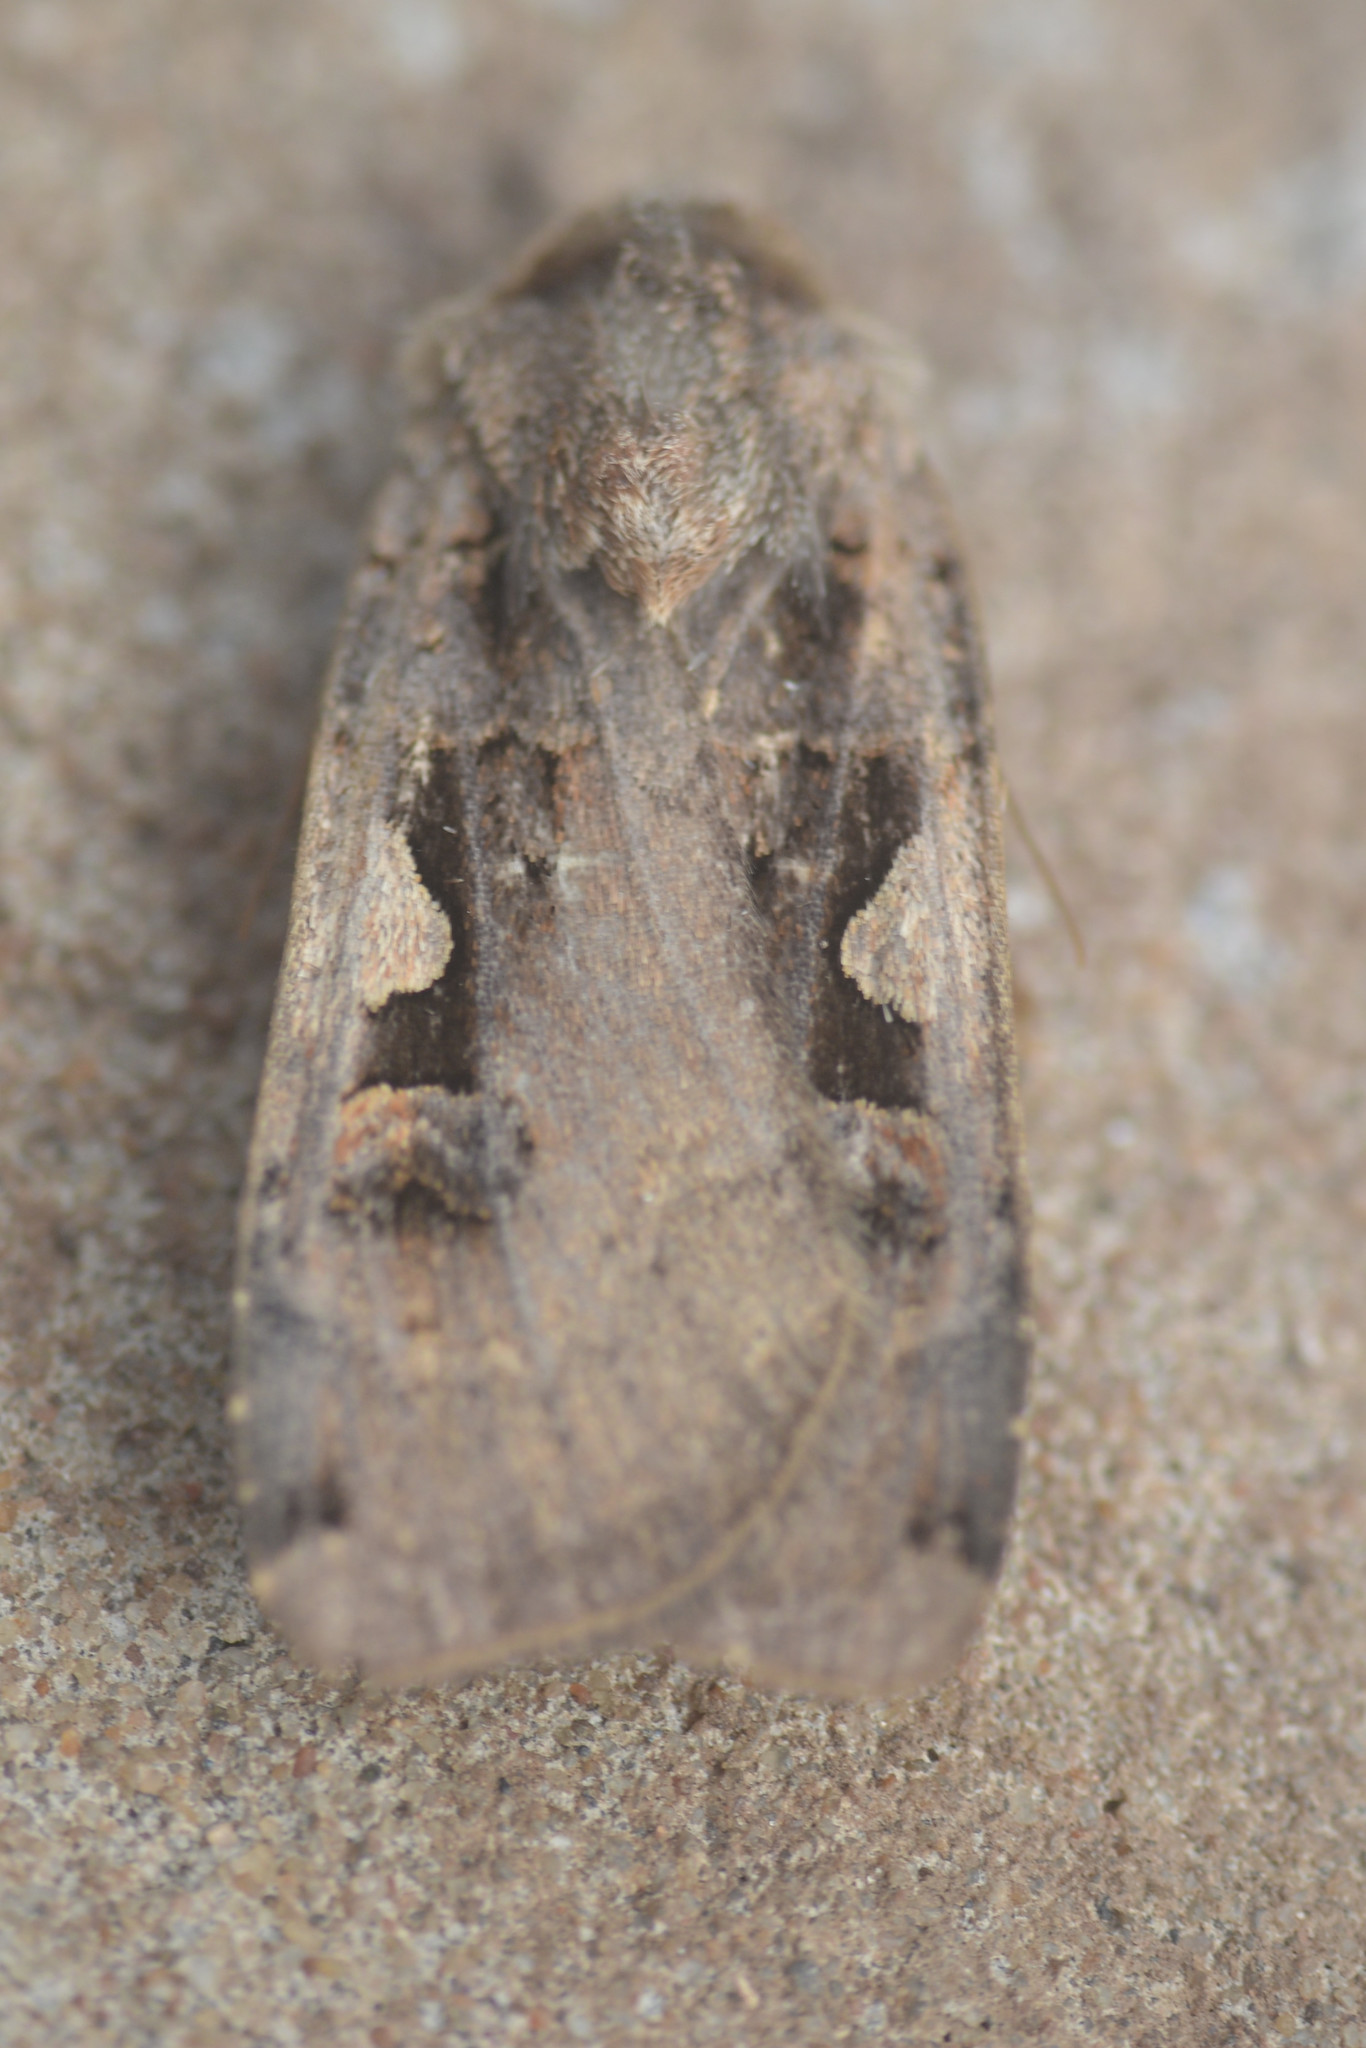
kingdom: Animalia
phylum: Arthropoda
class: Insecta
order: Lepidoptera
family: Noctuidae
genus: Xestia
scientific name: Xestia c-nigrum
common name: Setaceous hebrew character
